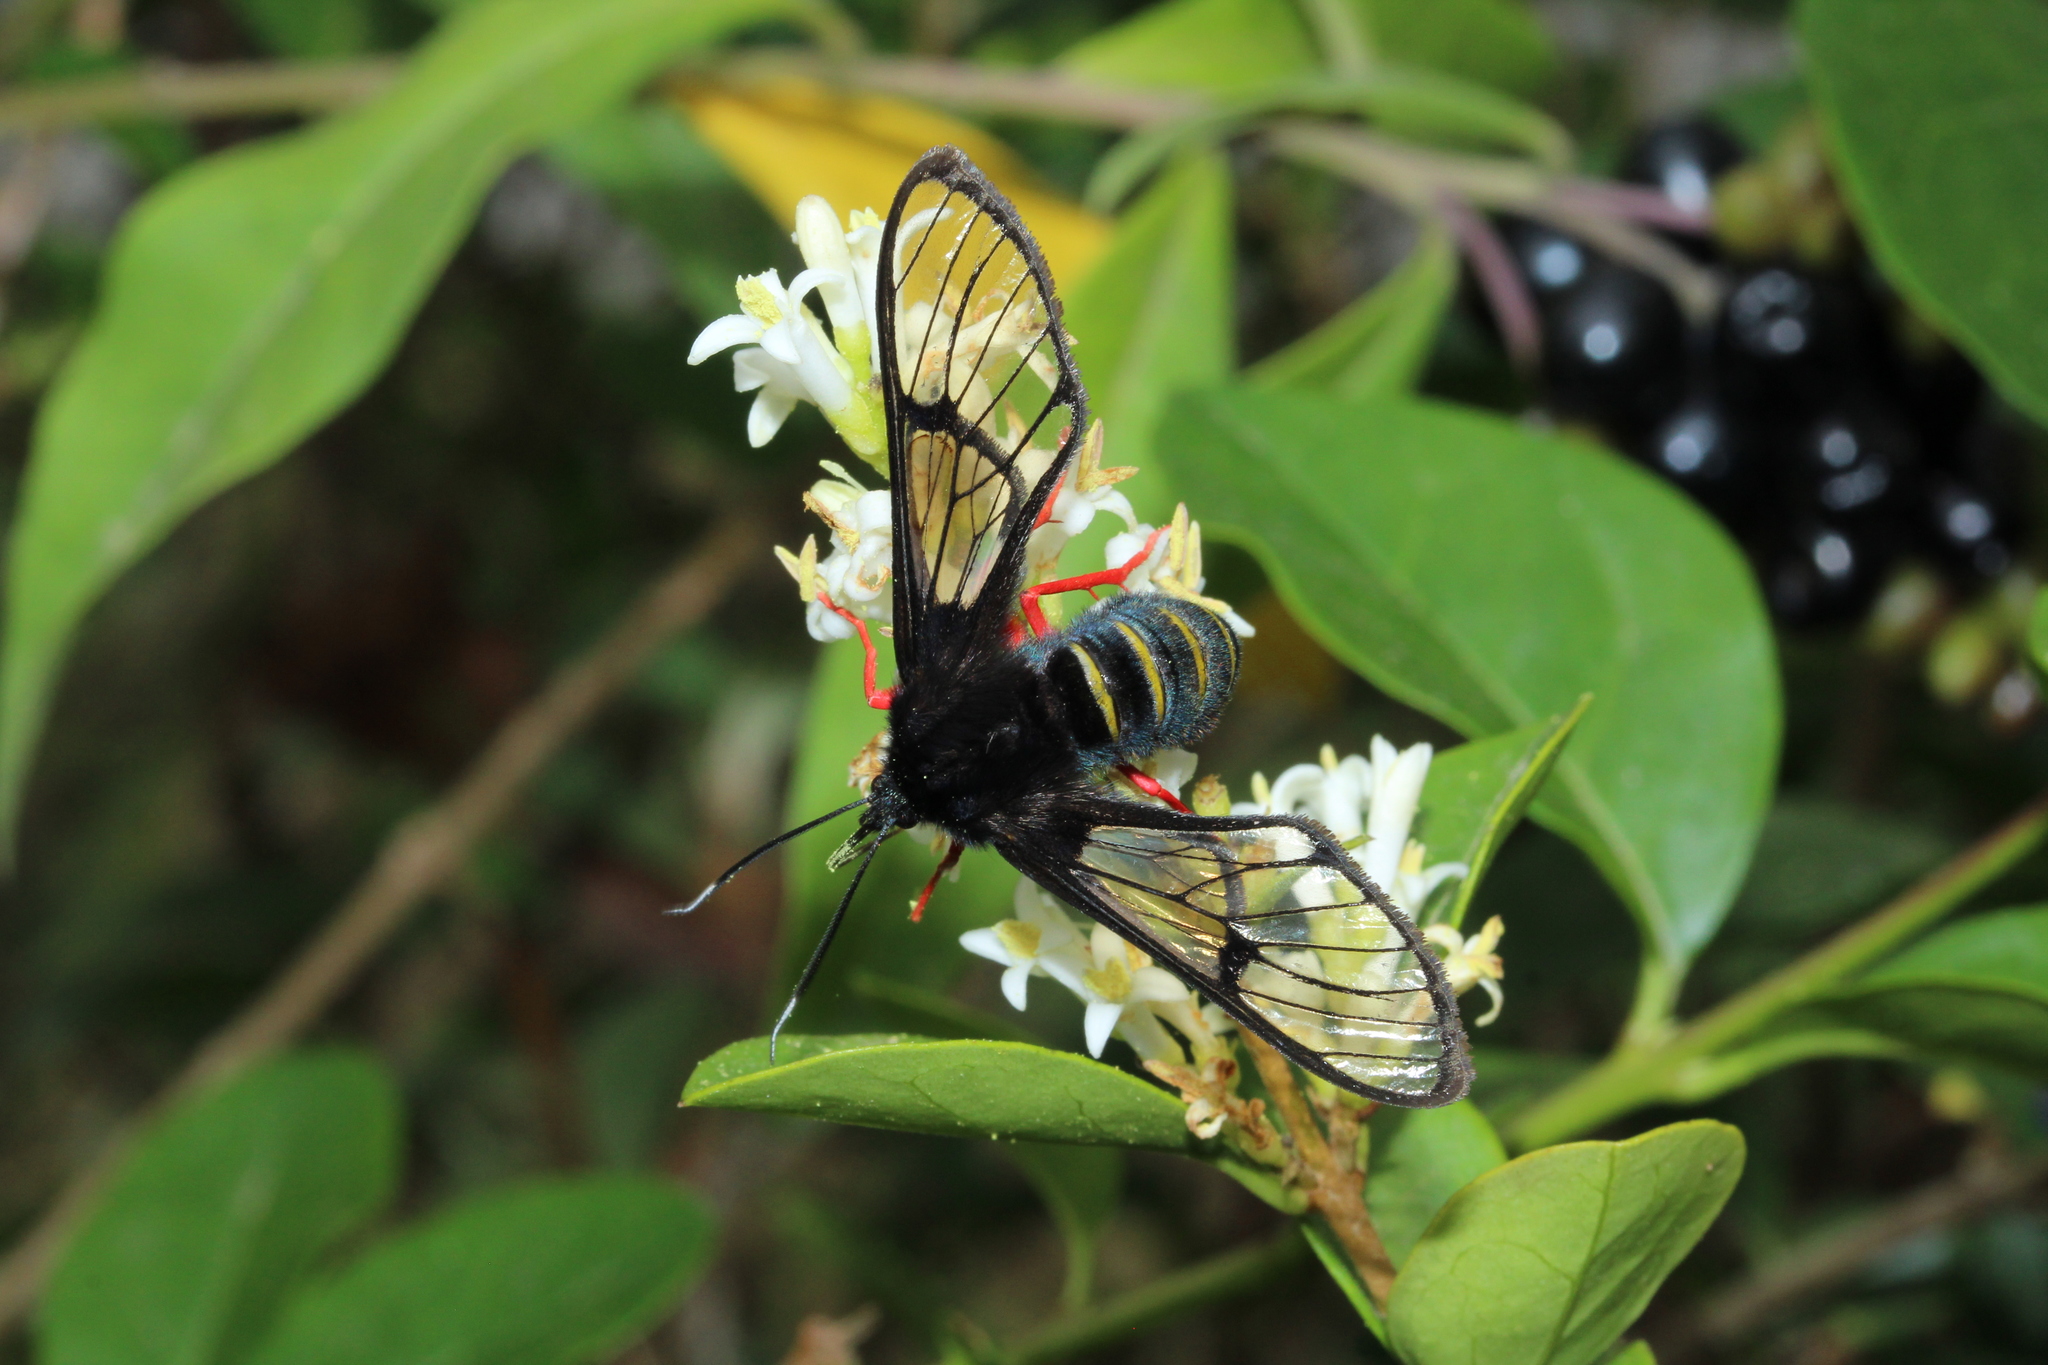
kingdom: Animalia
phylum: Arthropoda
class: Insecta
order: Lepidoptera
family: Erebidae
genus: Cosmosoma
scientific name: Cosmosoma
